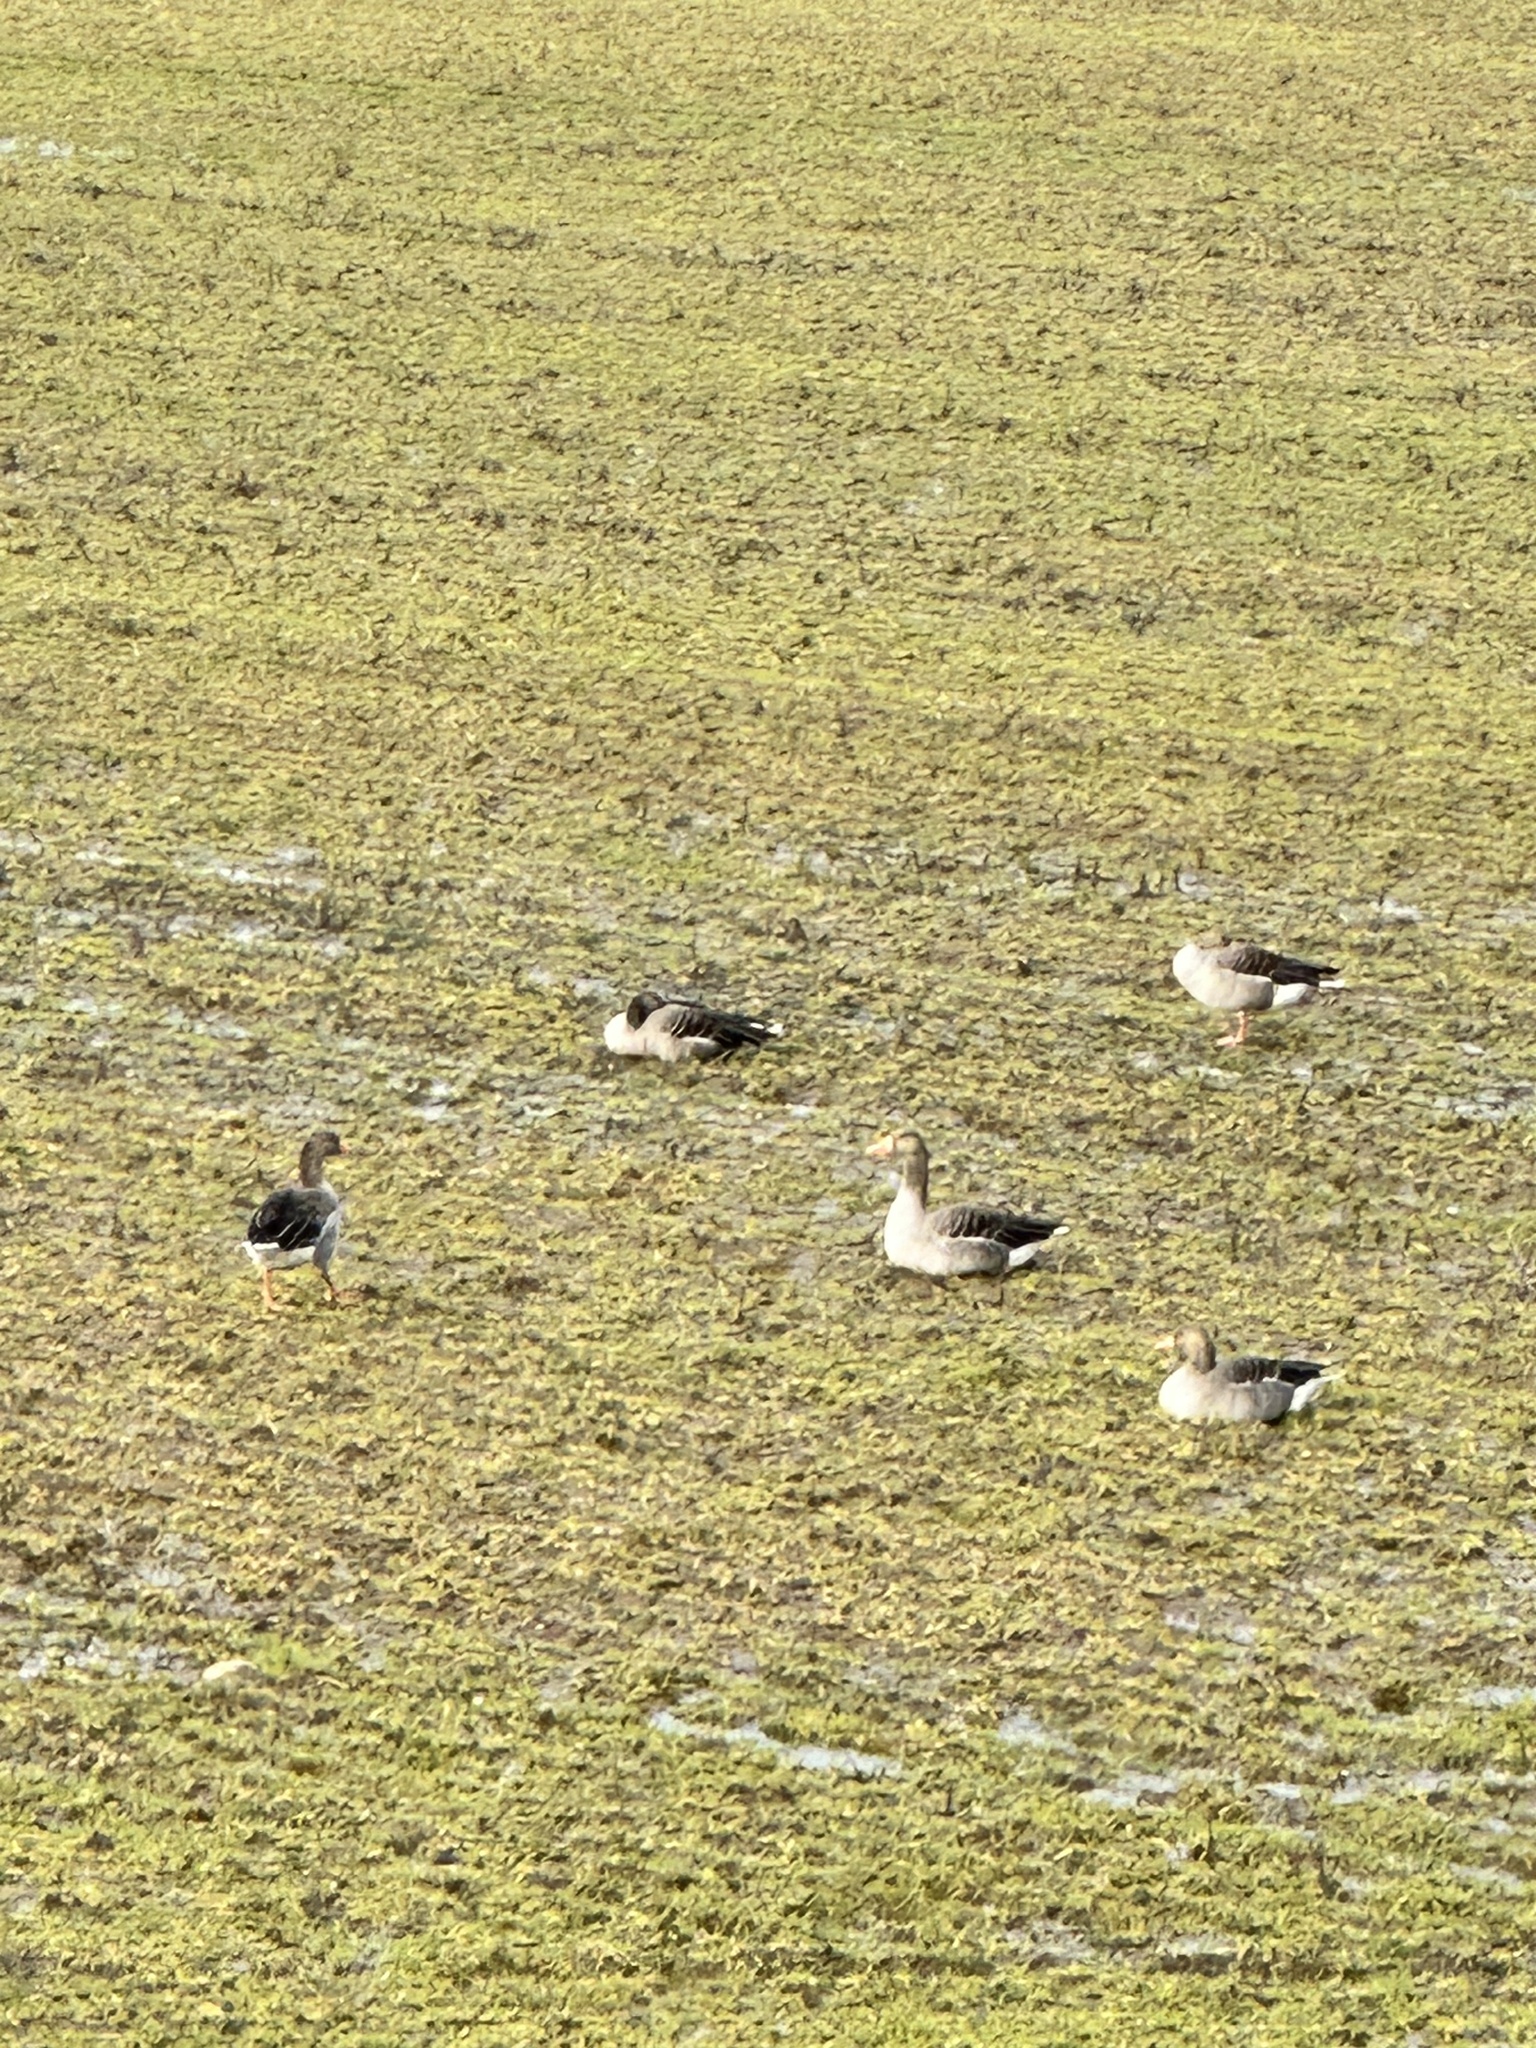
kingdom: Animalia
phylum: Chordata
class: Aves
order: Anseriformes
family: Anatidae
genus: Anser
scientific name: Anser anser
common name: Greylag goose
